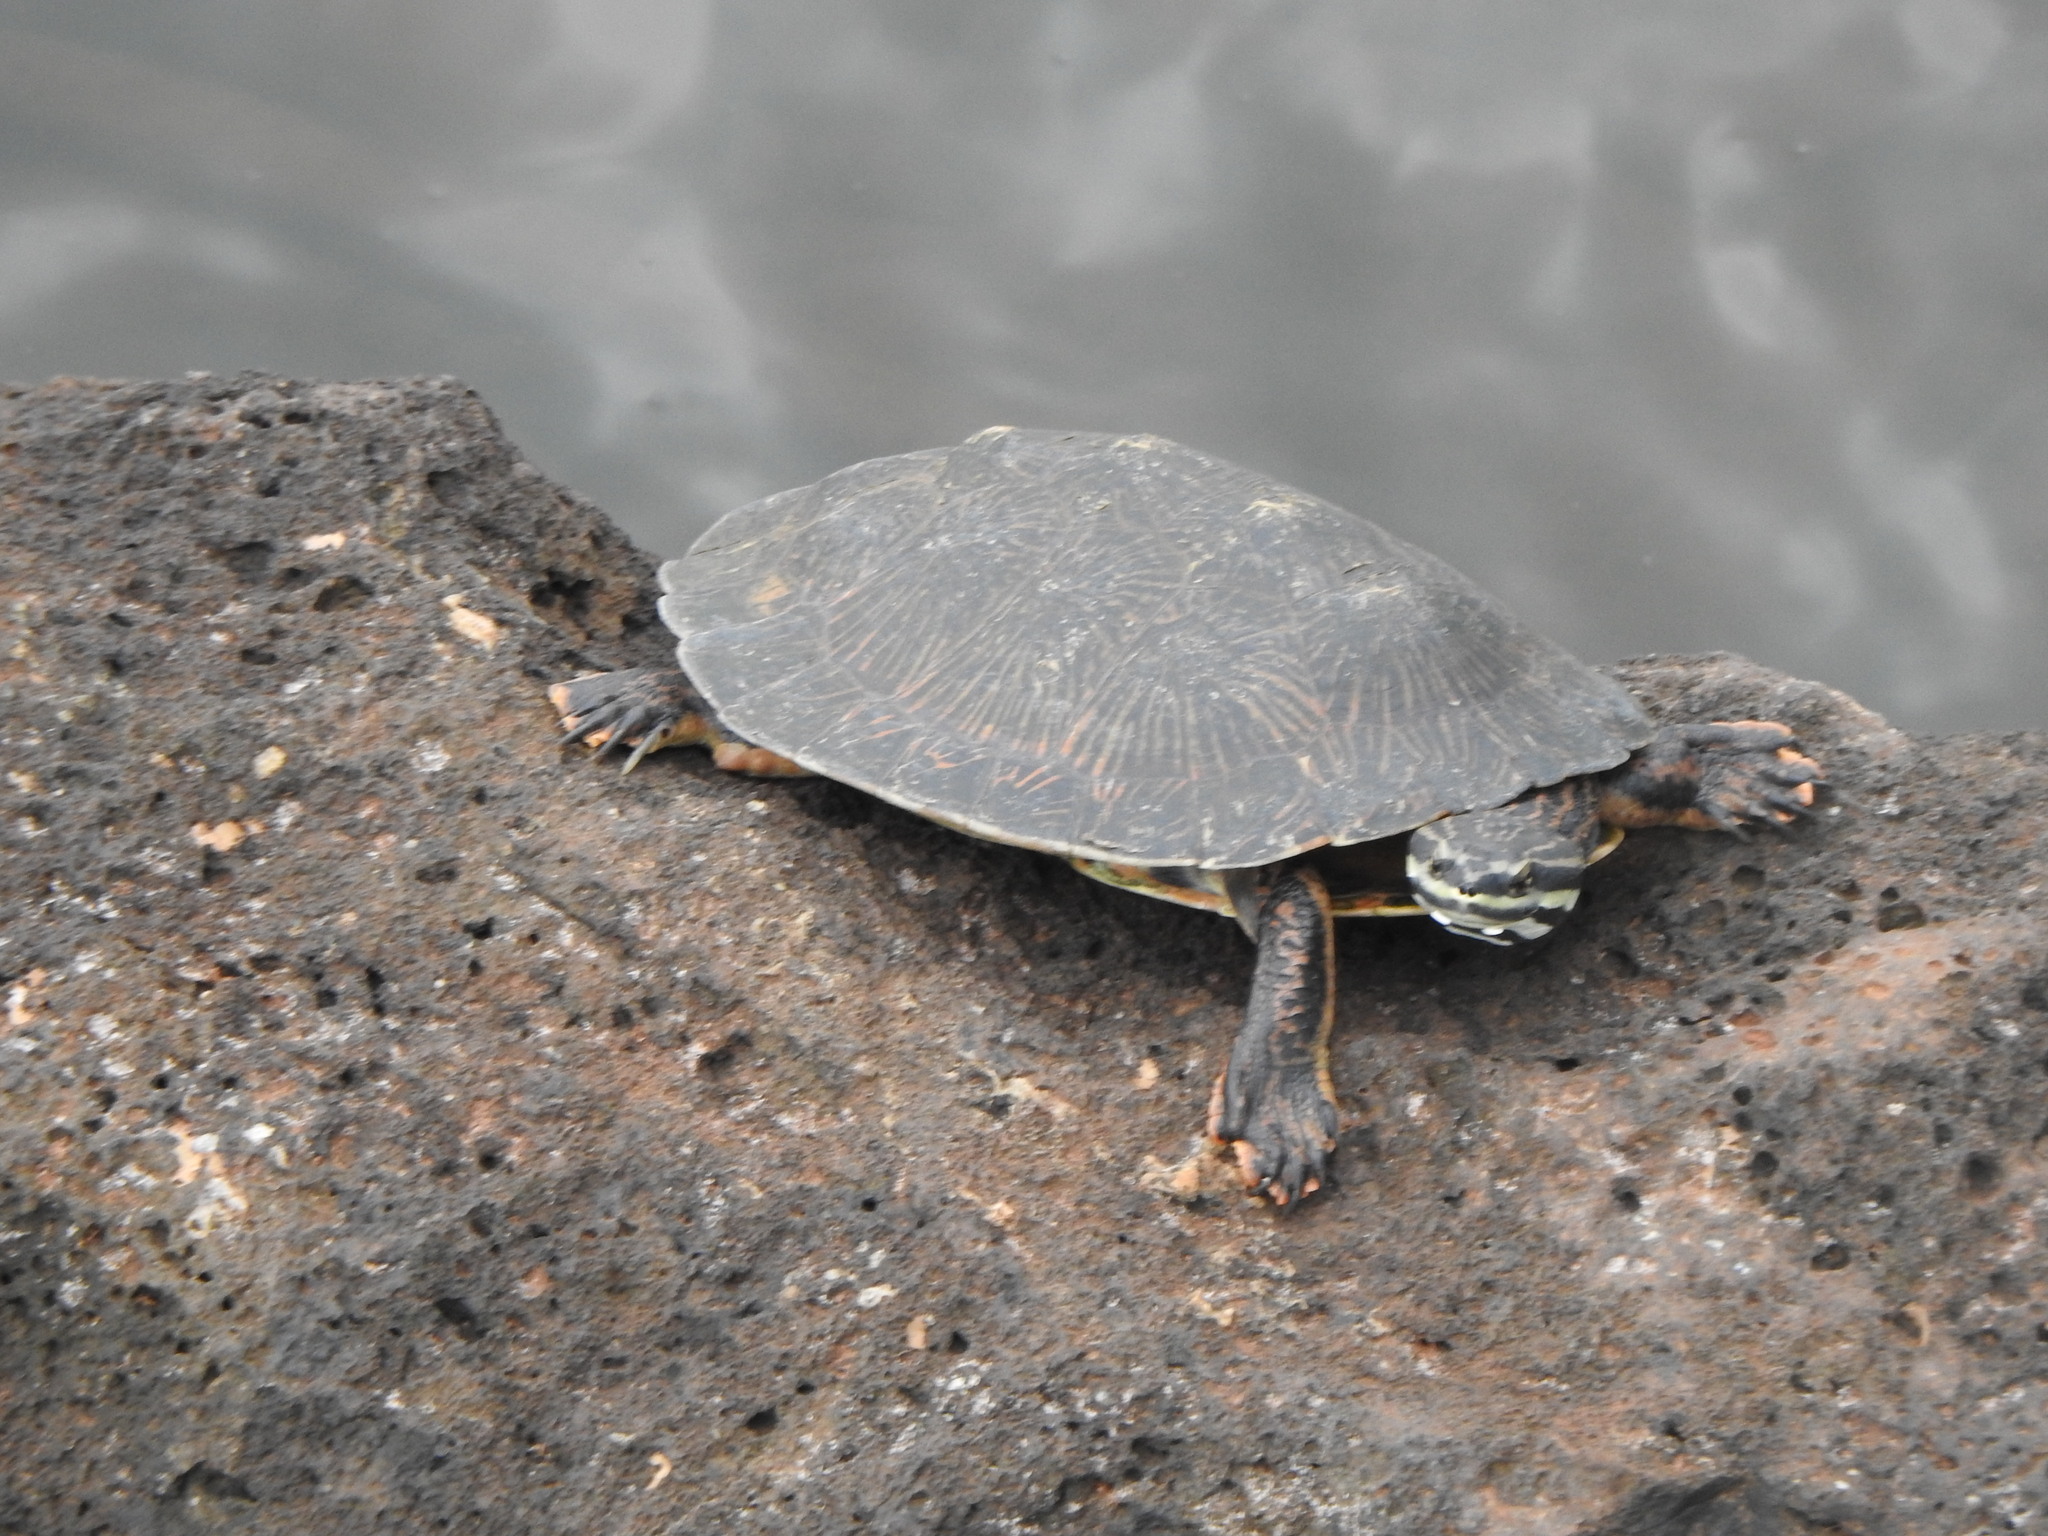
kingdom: Animalia
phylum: Chordata
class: Testudines
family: Chelidae
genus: Phrynops
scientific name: Phrynops williamsi
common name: Williams side-necked turtle
